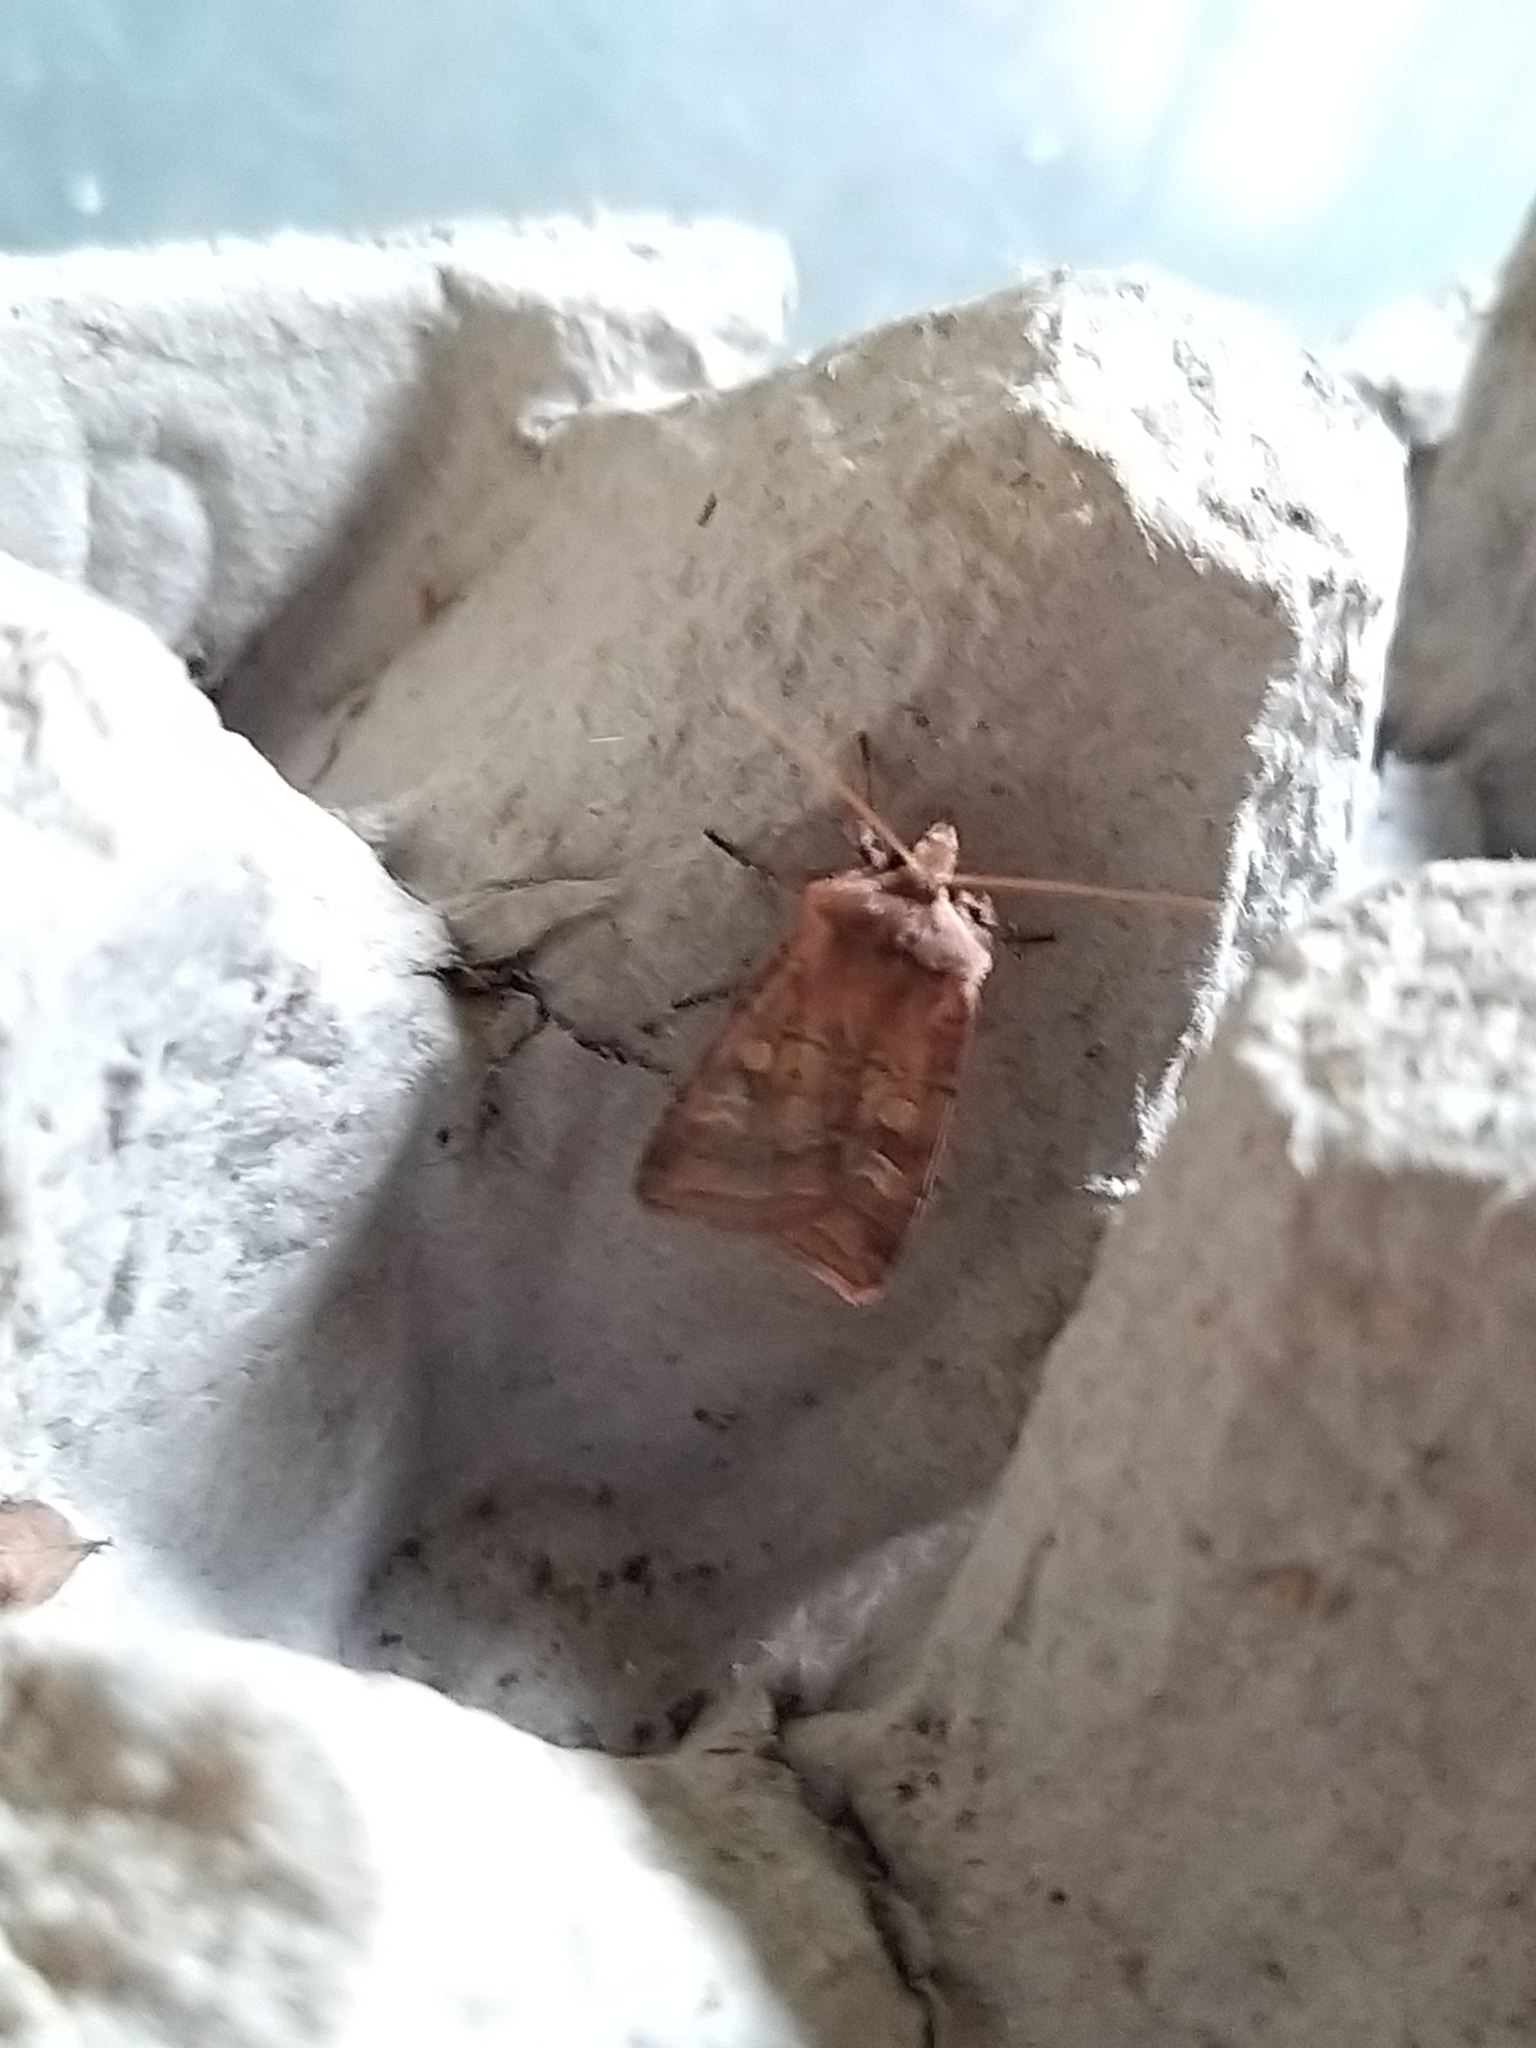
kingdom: Animalia
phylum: Arthropoda
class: Insecta
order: Lepidoptera
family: Noctuidae
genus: Diarsia
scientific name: Diarsia rubi
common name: Small square-spot
